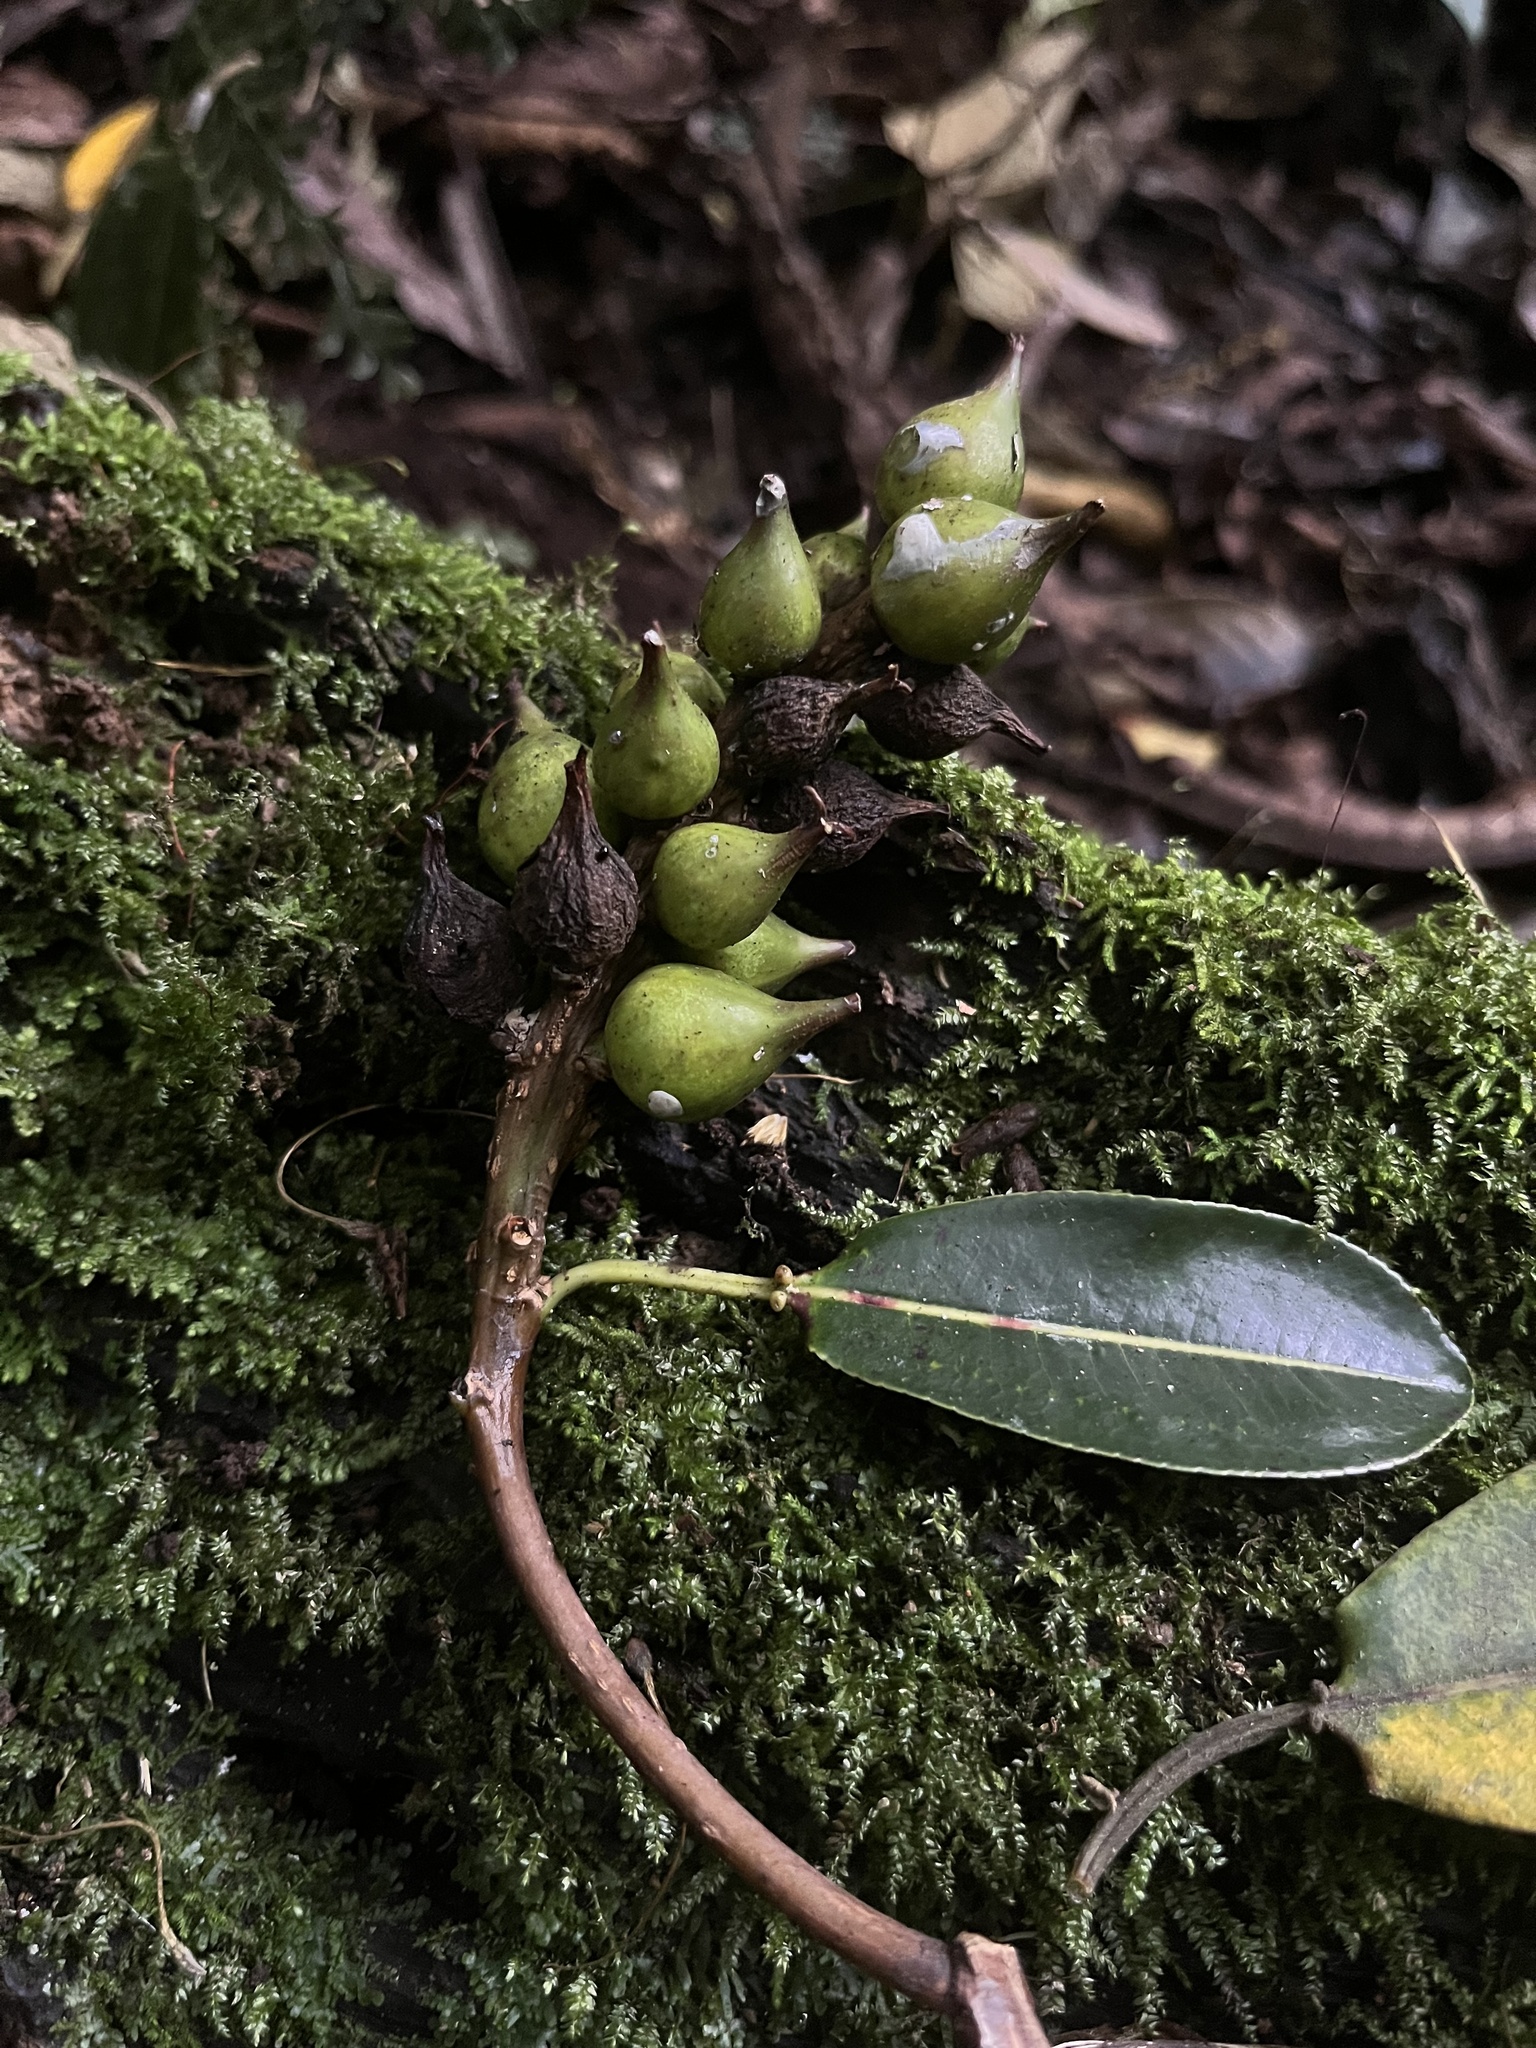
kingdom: Plantae
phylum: Tracheophyta
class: Magnoliopsida
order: Malpighiales
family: Euphorbiaceae
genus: Sapium
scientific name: Sapium stylare
